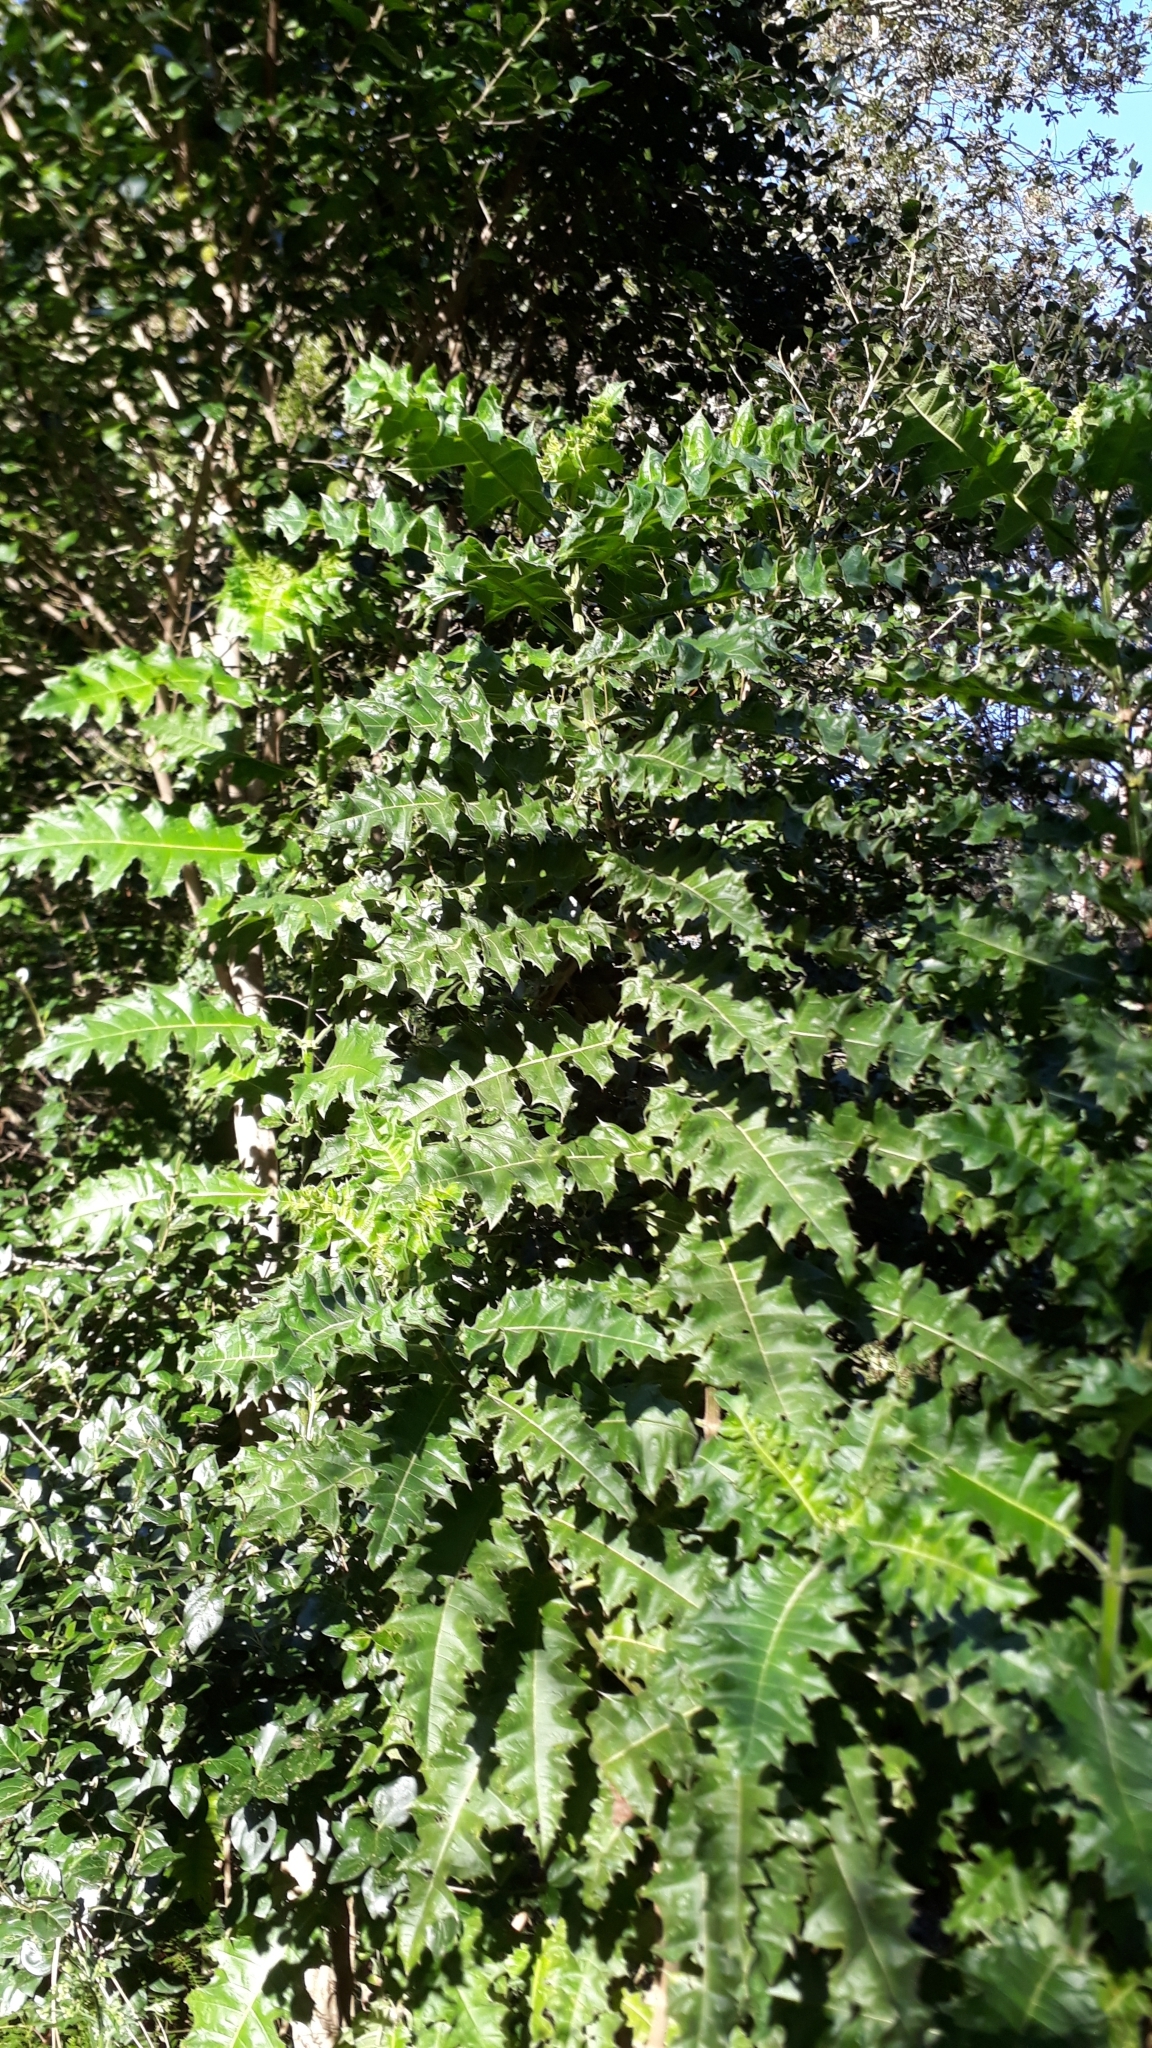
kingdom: Plantae
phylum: Tracheophyta
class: Magnoliopsida
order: Lamiales
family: Acanthaceae
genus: Acanthus
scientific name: Acanthus polystachyus
